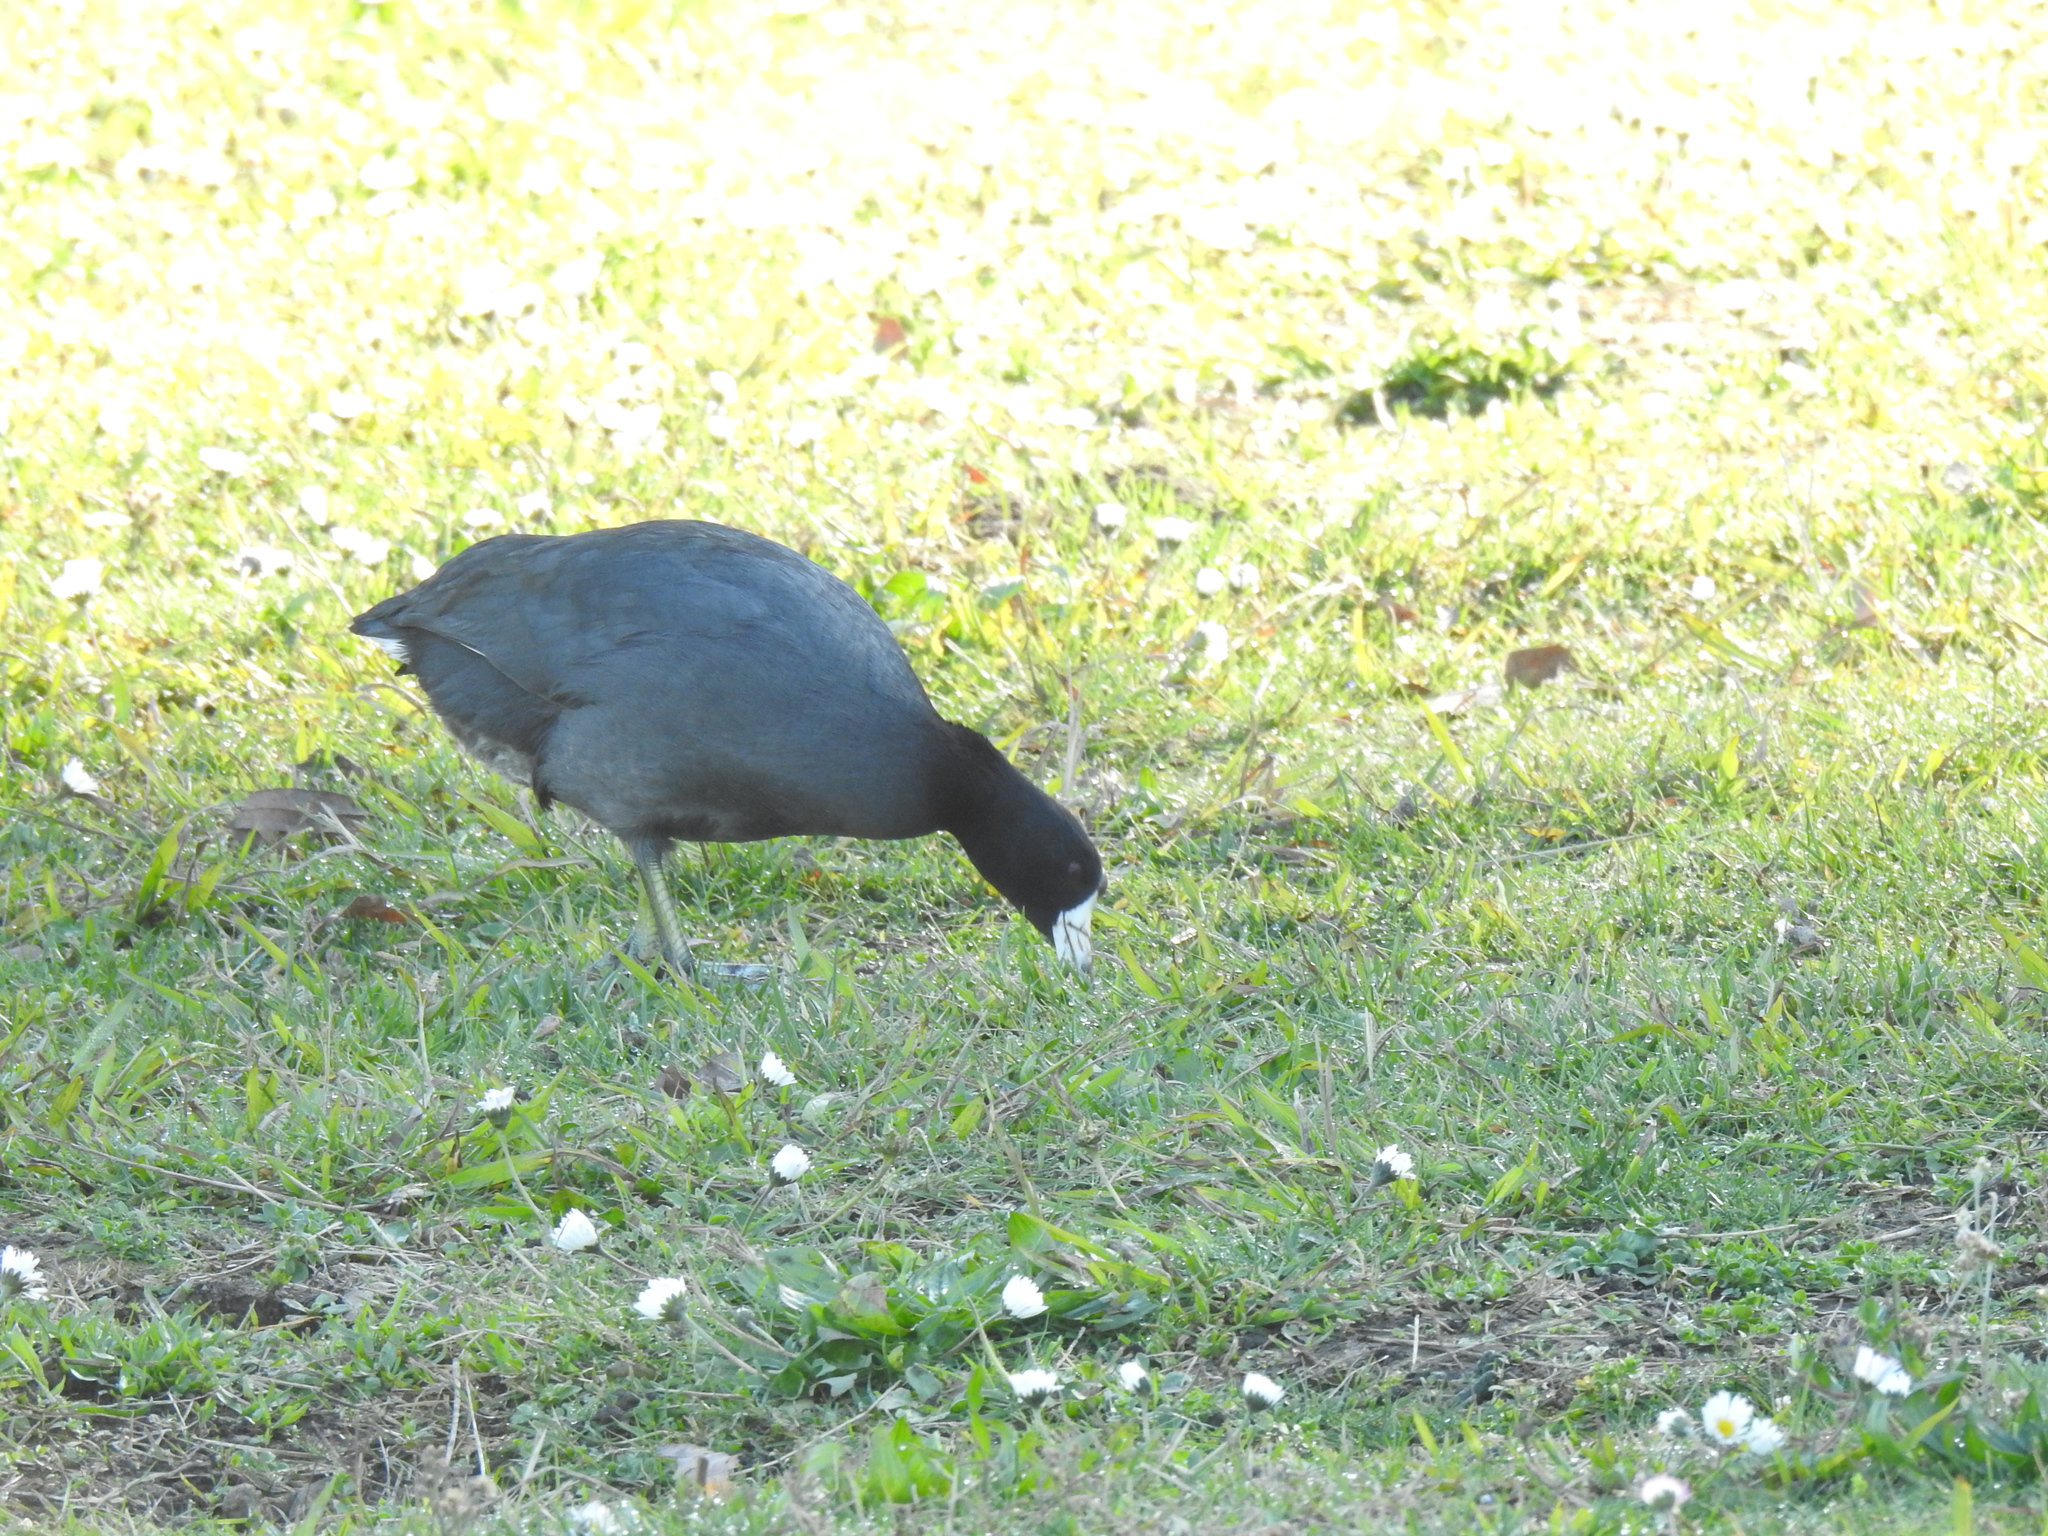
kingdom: Animalia
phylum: Chordata
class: Aves
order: Gruiformes
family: Rallidae
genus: Fulica
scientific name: Fulica americana
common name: American coot
